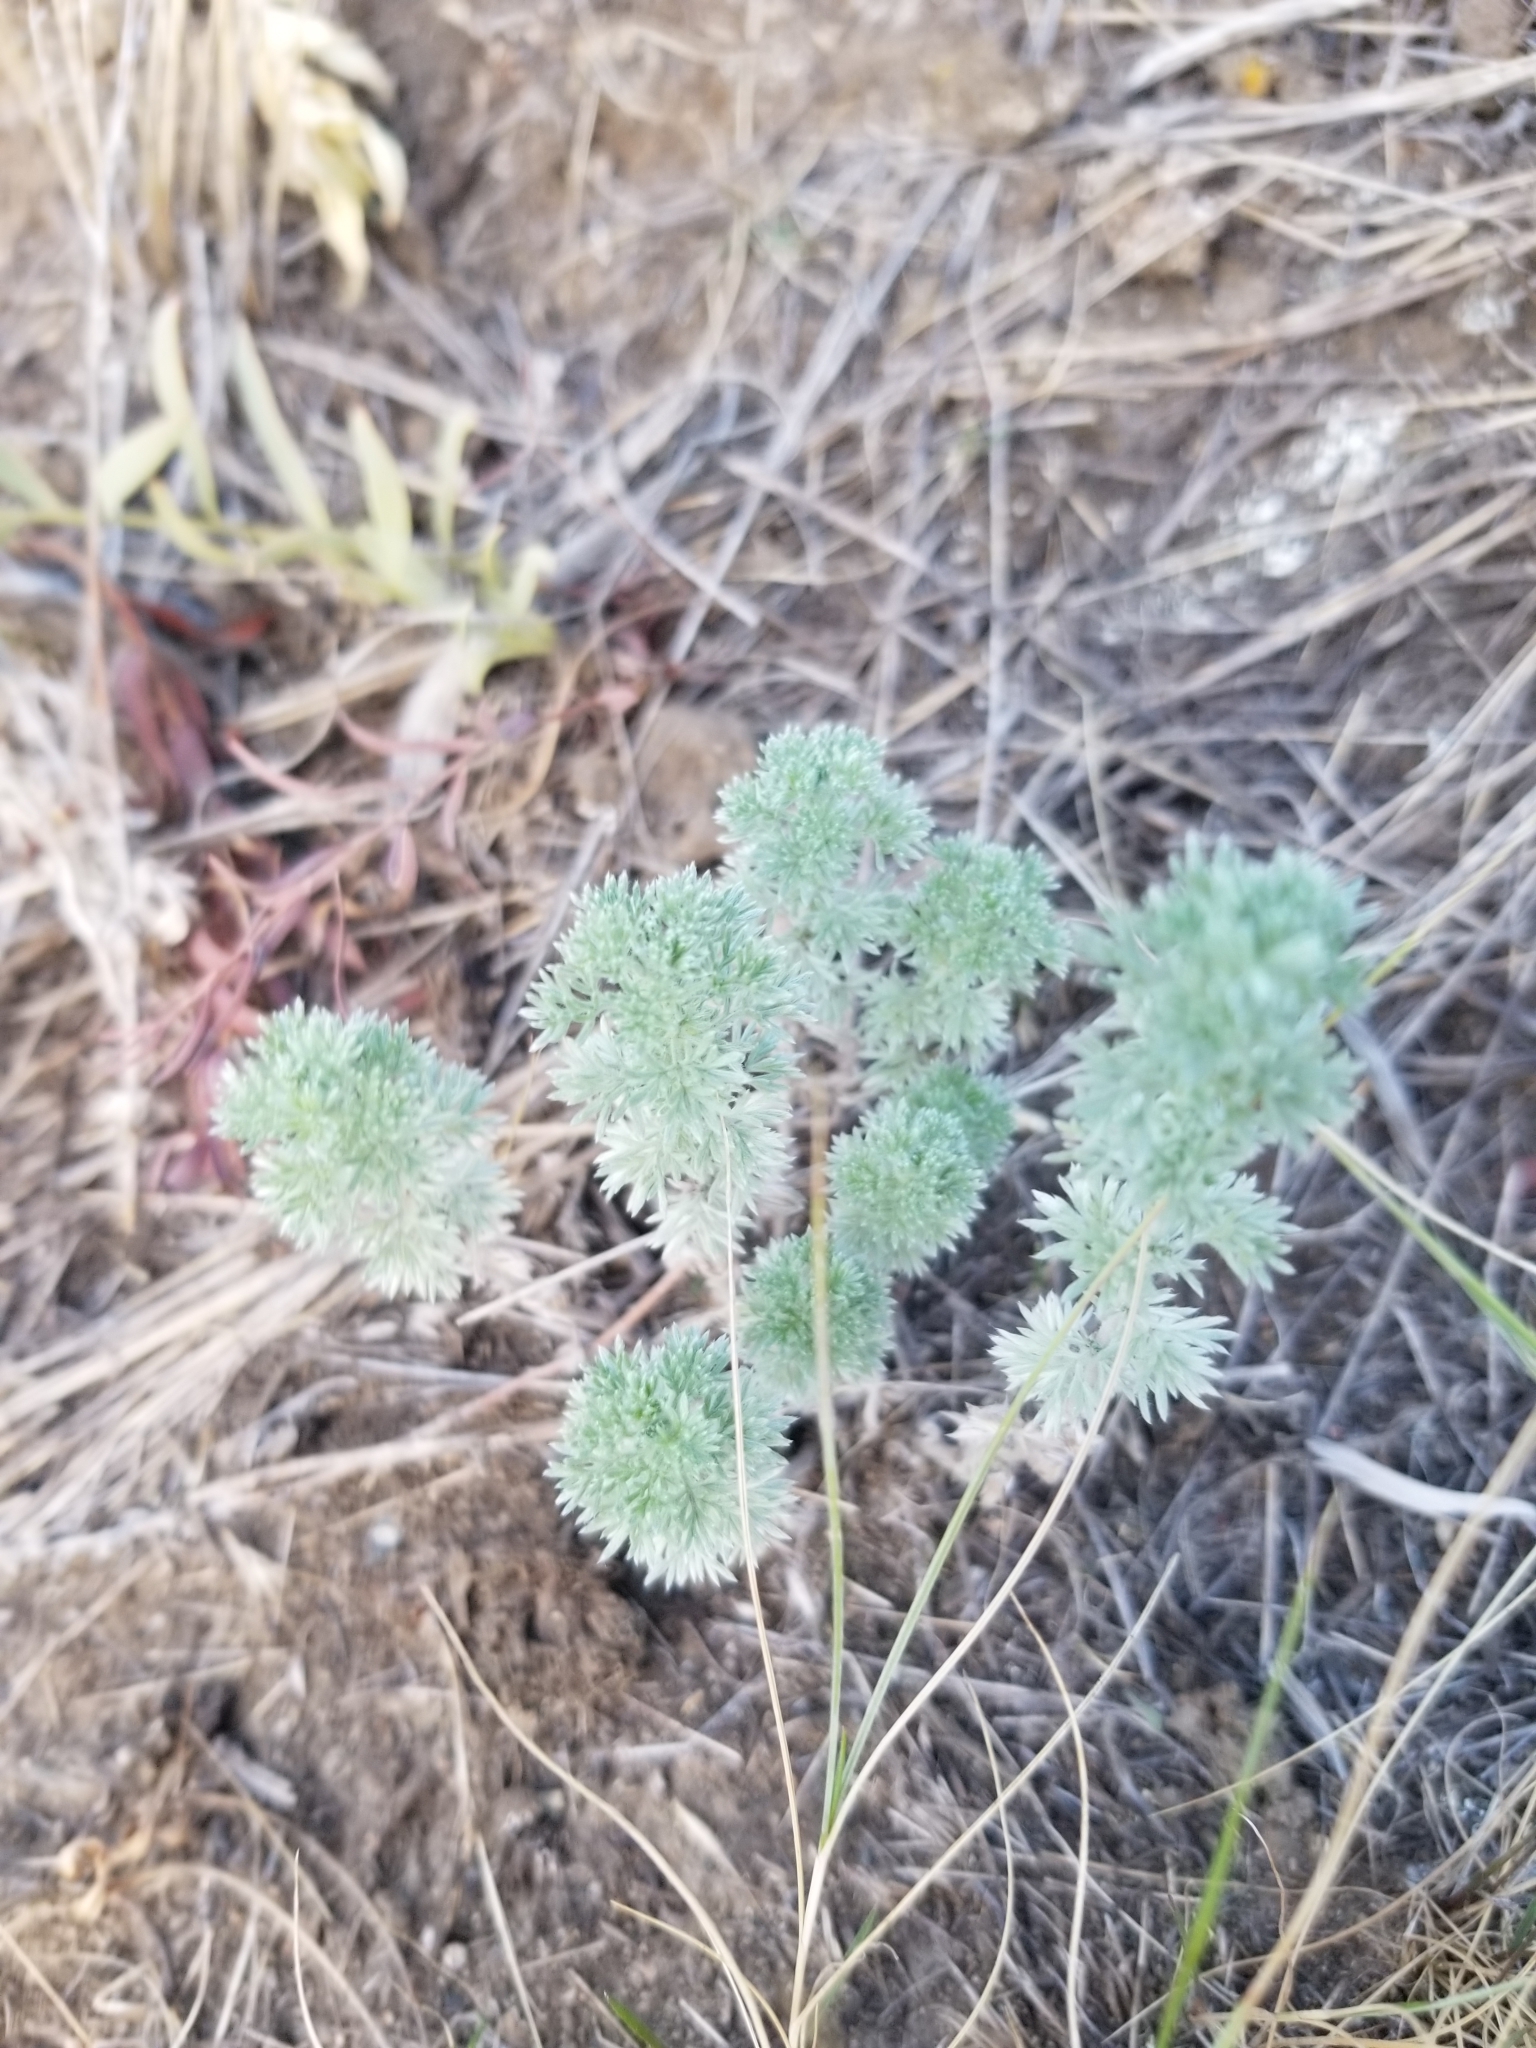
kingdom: Plantae
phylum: Tracheophyta
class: Magnoliopsida
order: Asterales
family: Asteraceae
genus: Artemisia
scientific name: Artemisia frigida
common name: Prairie sagewort
